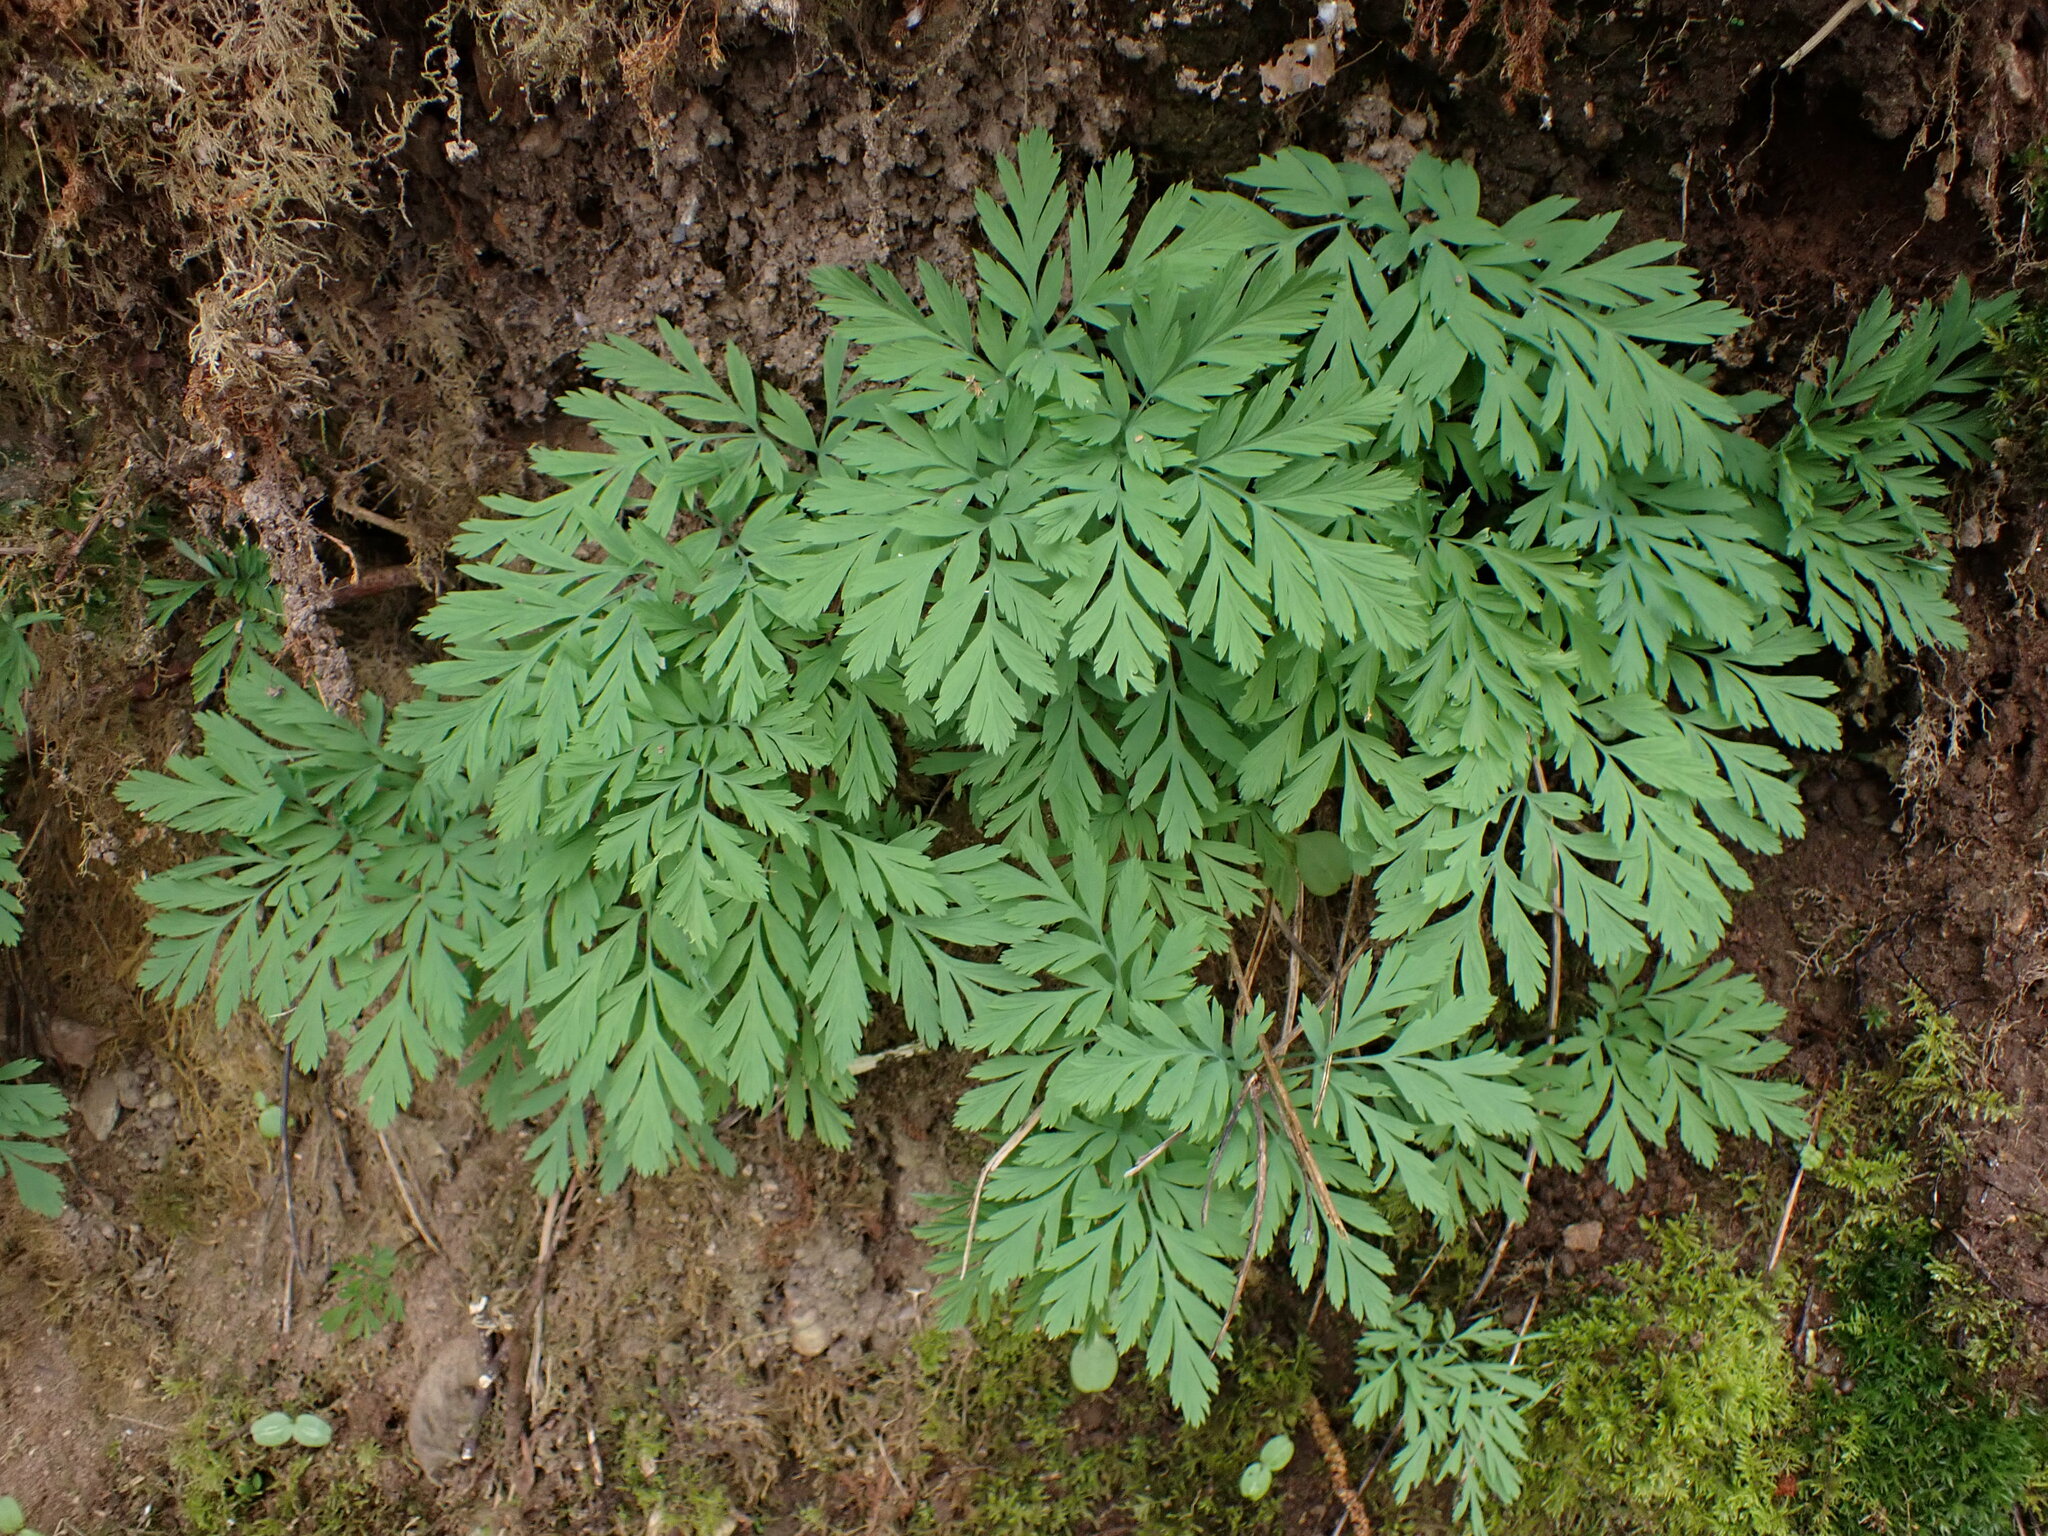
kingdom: Plantae
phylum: Tracheophyta
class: Magnoliopsida
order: Ranunculales
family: Papaveraceae
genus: Dicentra
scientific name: Dicentra formosa
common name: Bleeding-heart
